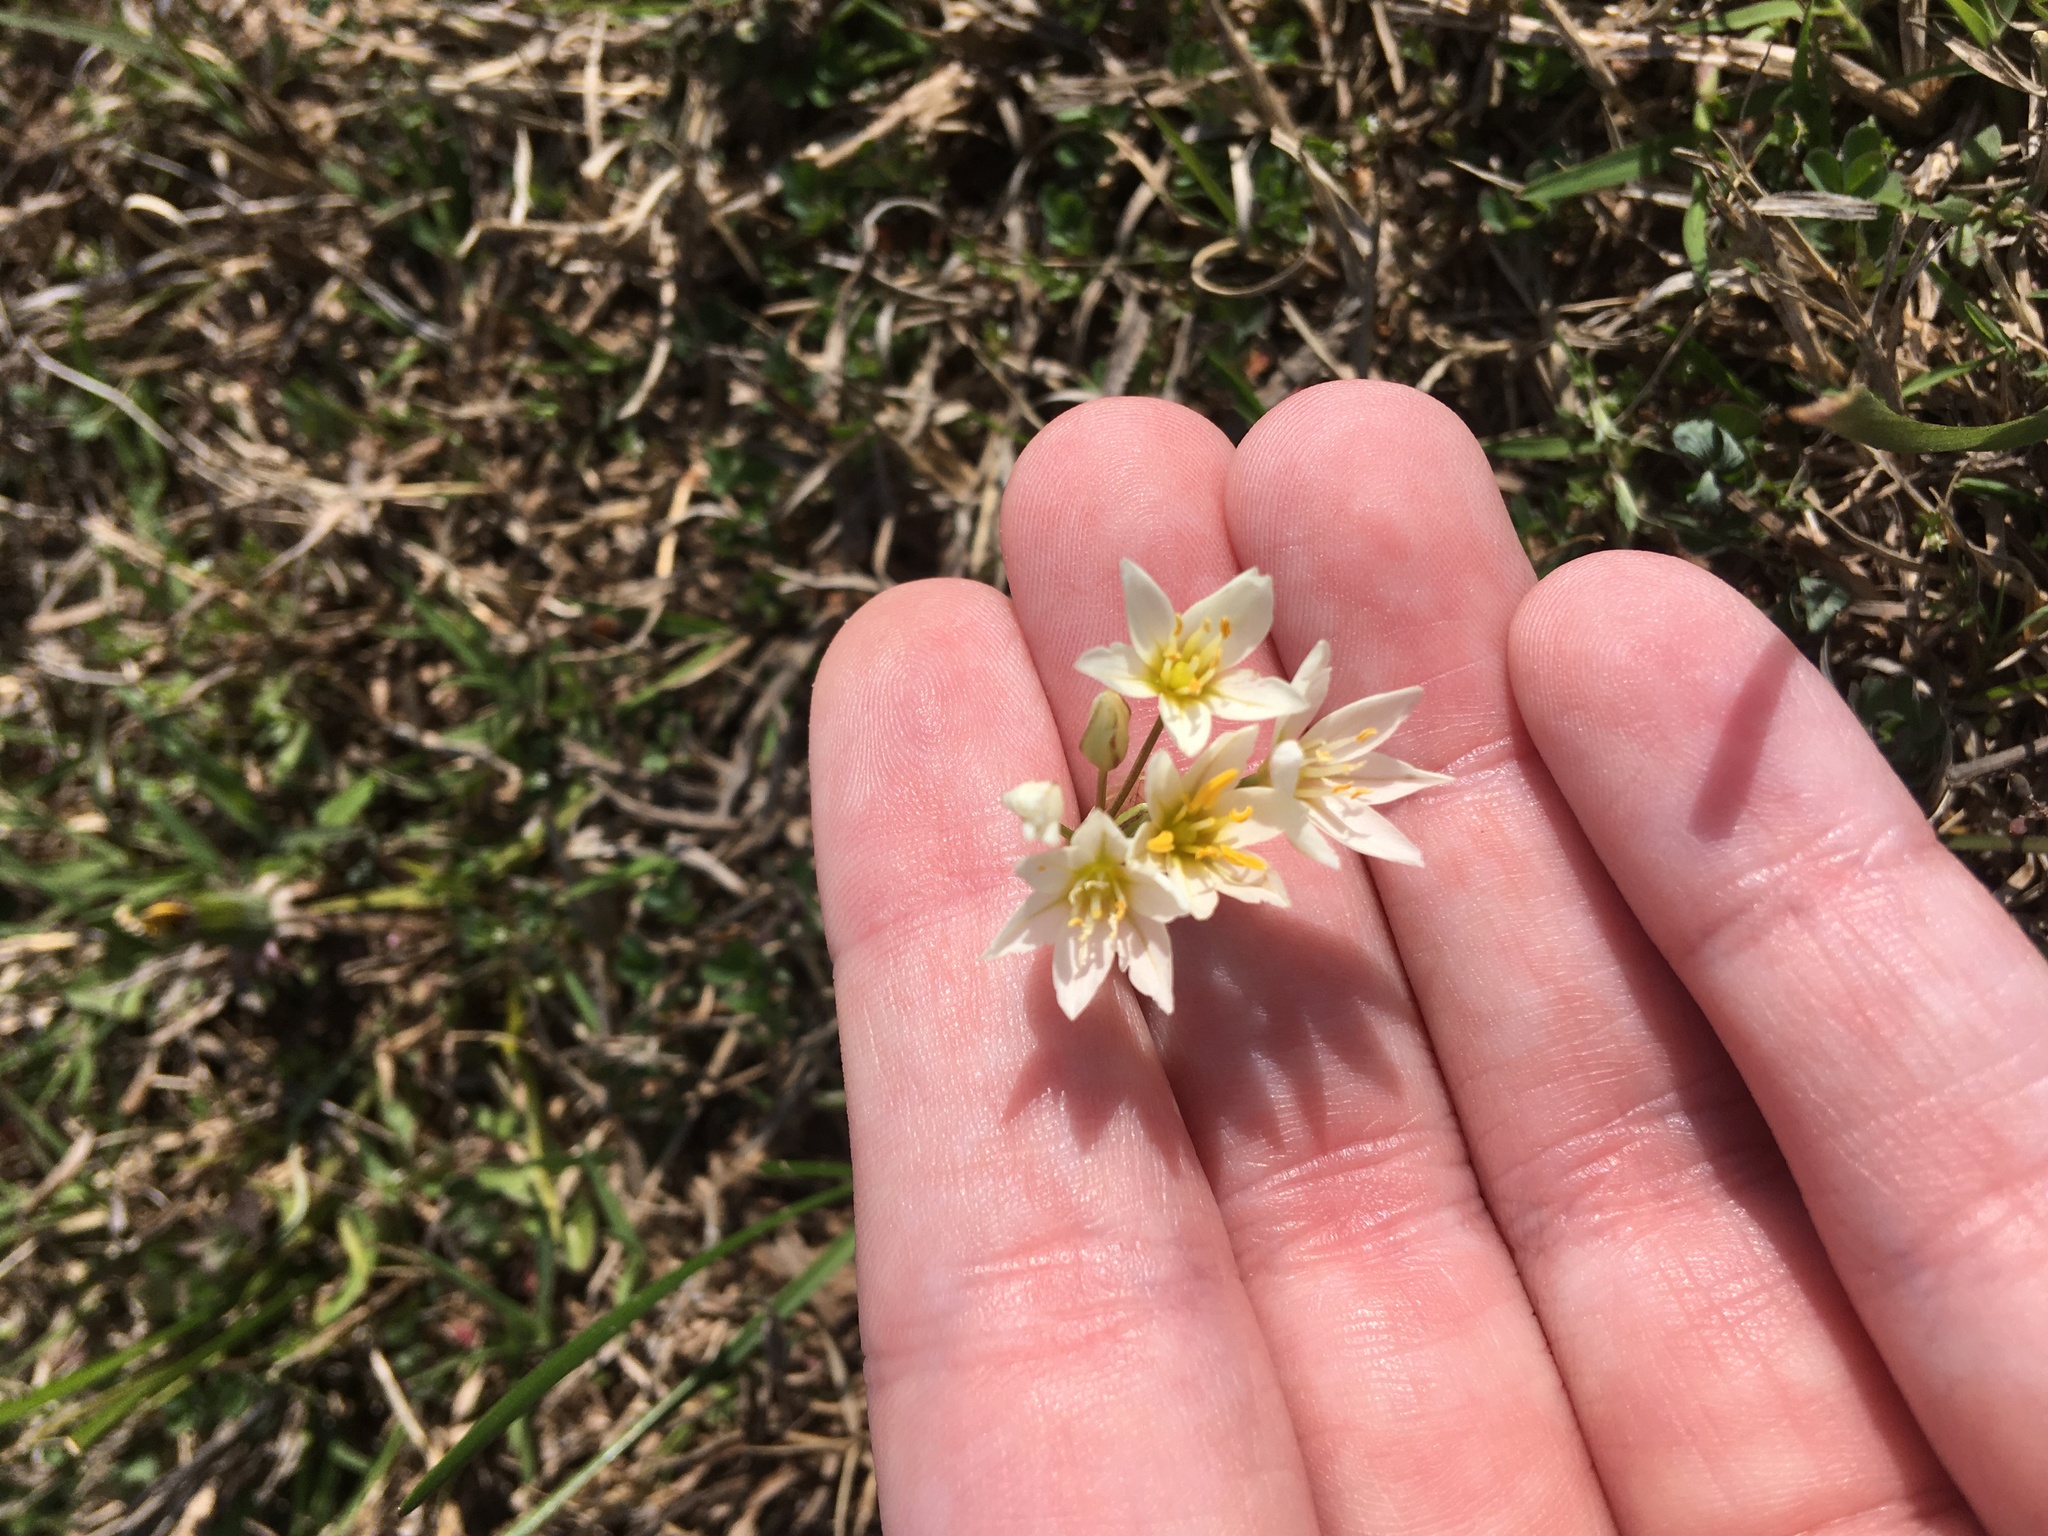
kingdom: Plantae
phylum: Tracheophyta
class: Liliopsida
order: Asparagales
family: Amaryllidaceae
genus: Nothoscordum
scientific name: Nothoscordum bivalve
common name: Crow-poison
